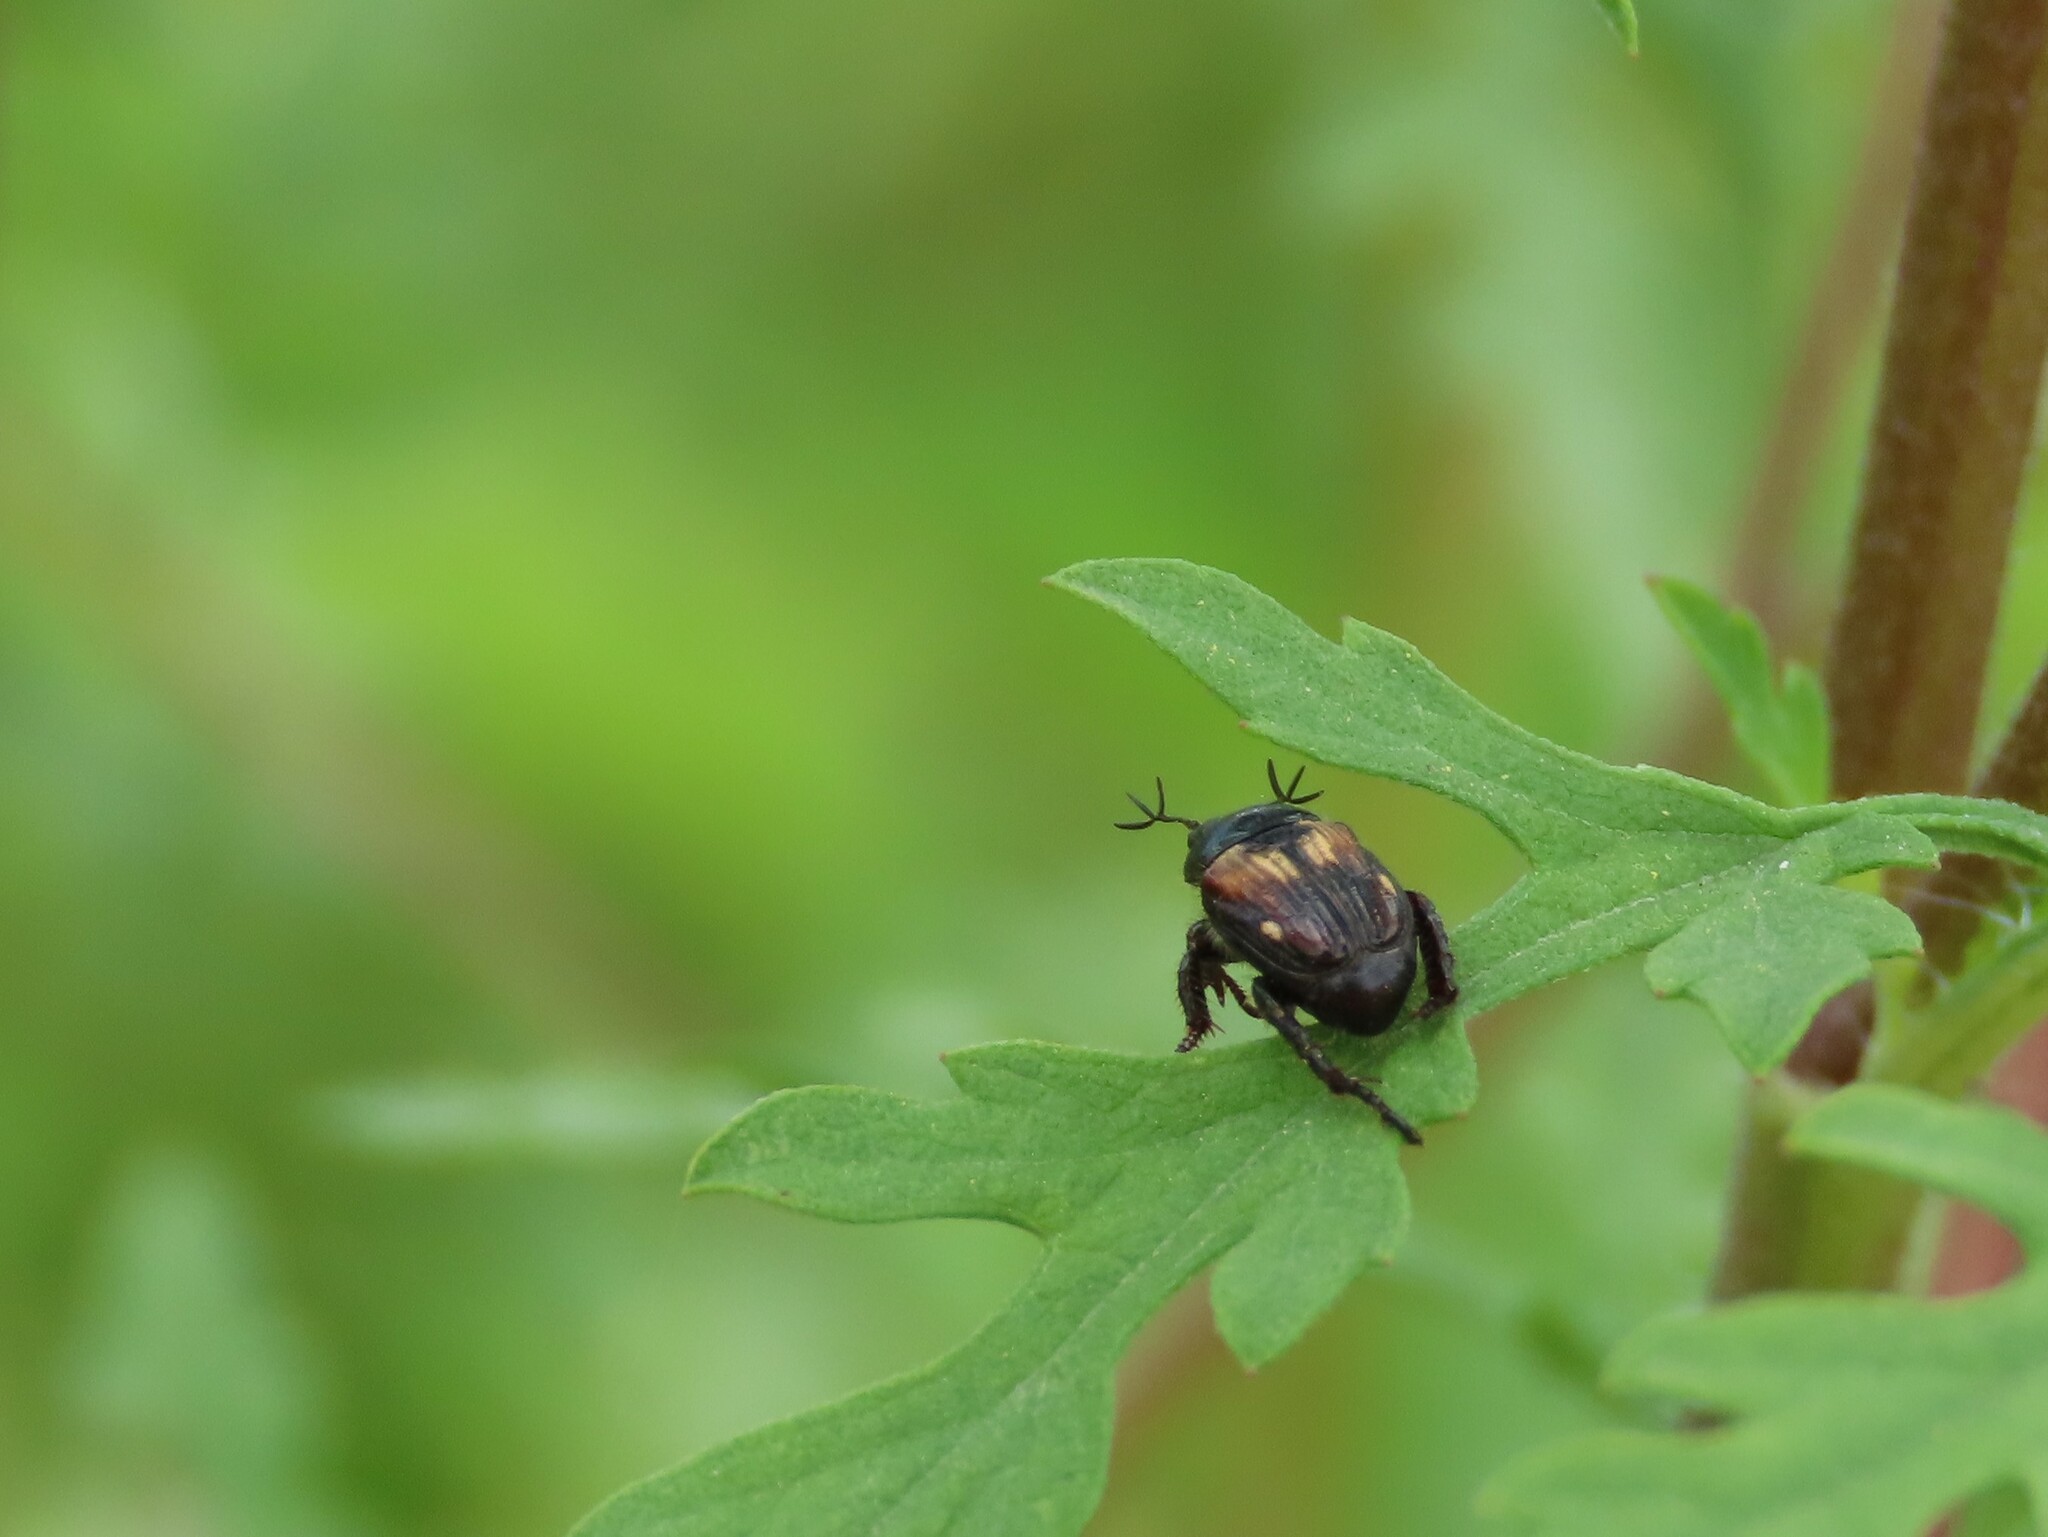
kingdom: Animalia
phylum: Arthropoda
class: Insecta
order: Coleoptera
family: Scarabaeidae
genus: Strigoderma
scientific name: Strigoderma pygmaea
